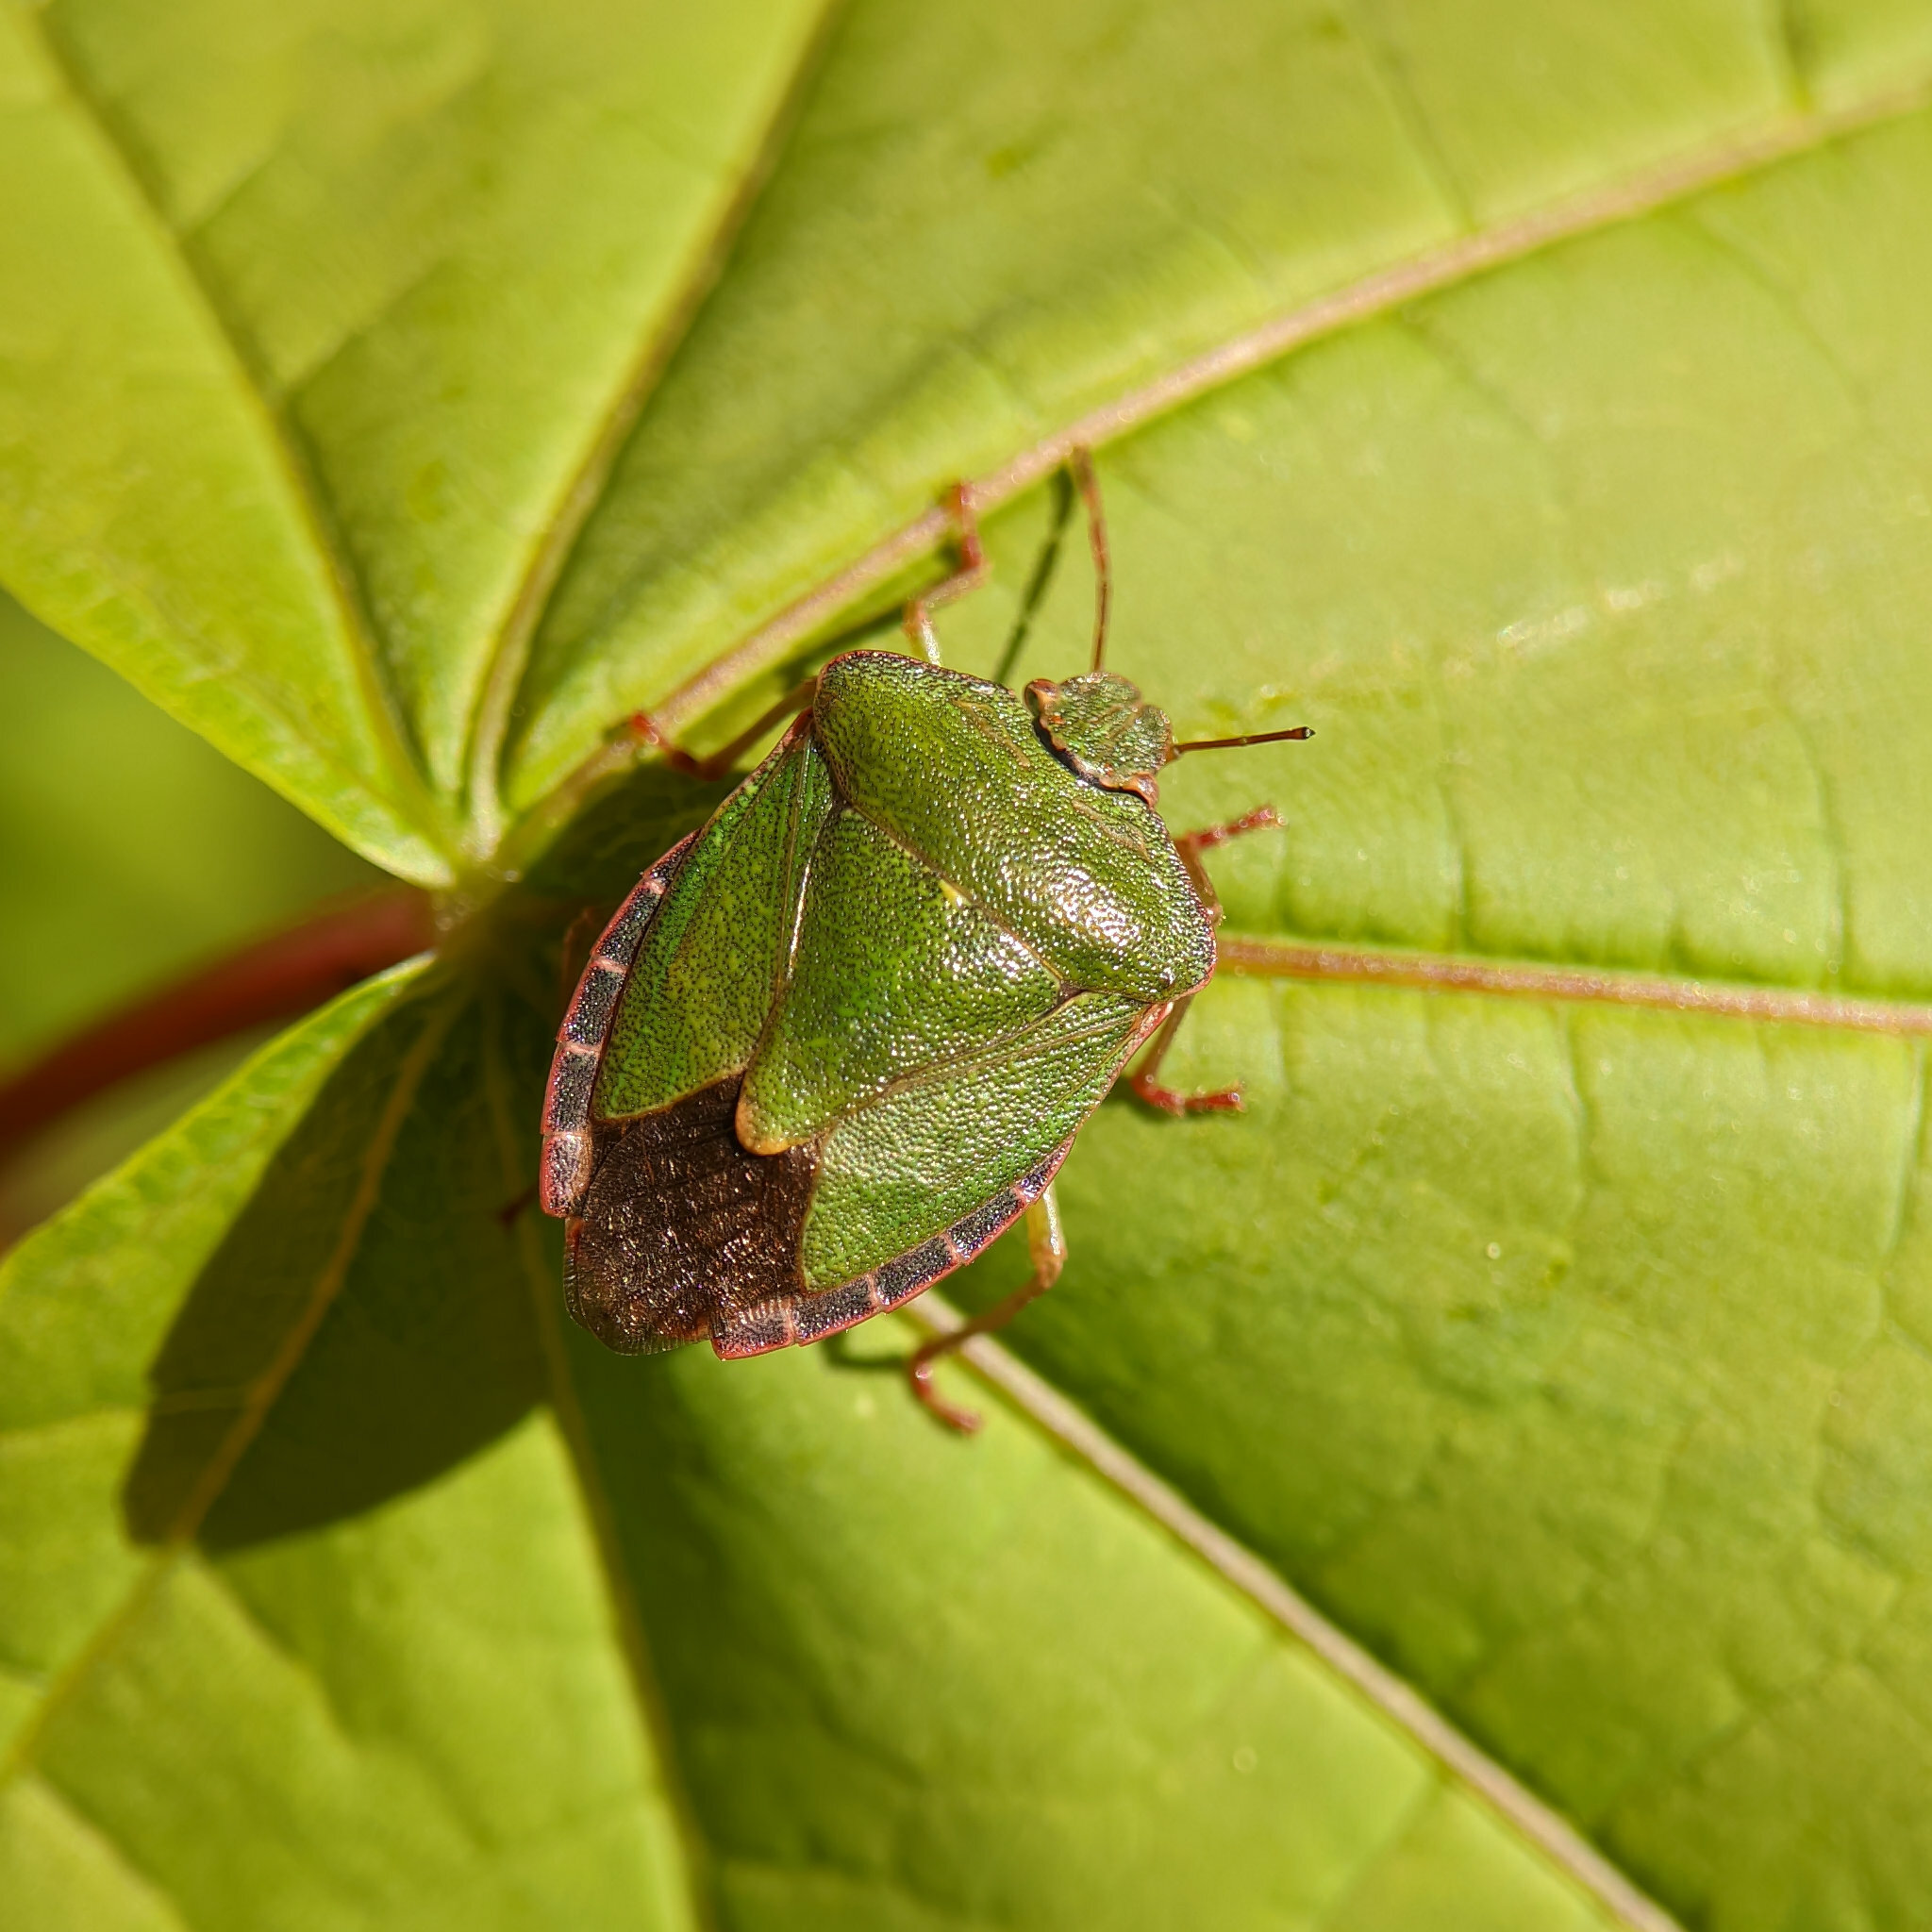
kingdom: Animalia
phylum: Arthropoda
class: Insecta
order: Hemiptera
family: Pentatomidae
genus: Palomena
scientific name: Palomena prasina
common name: Green shieldbug
